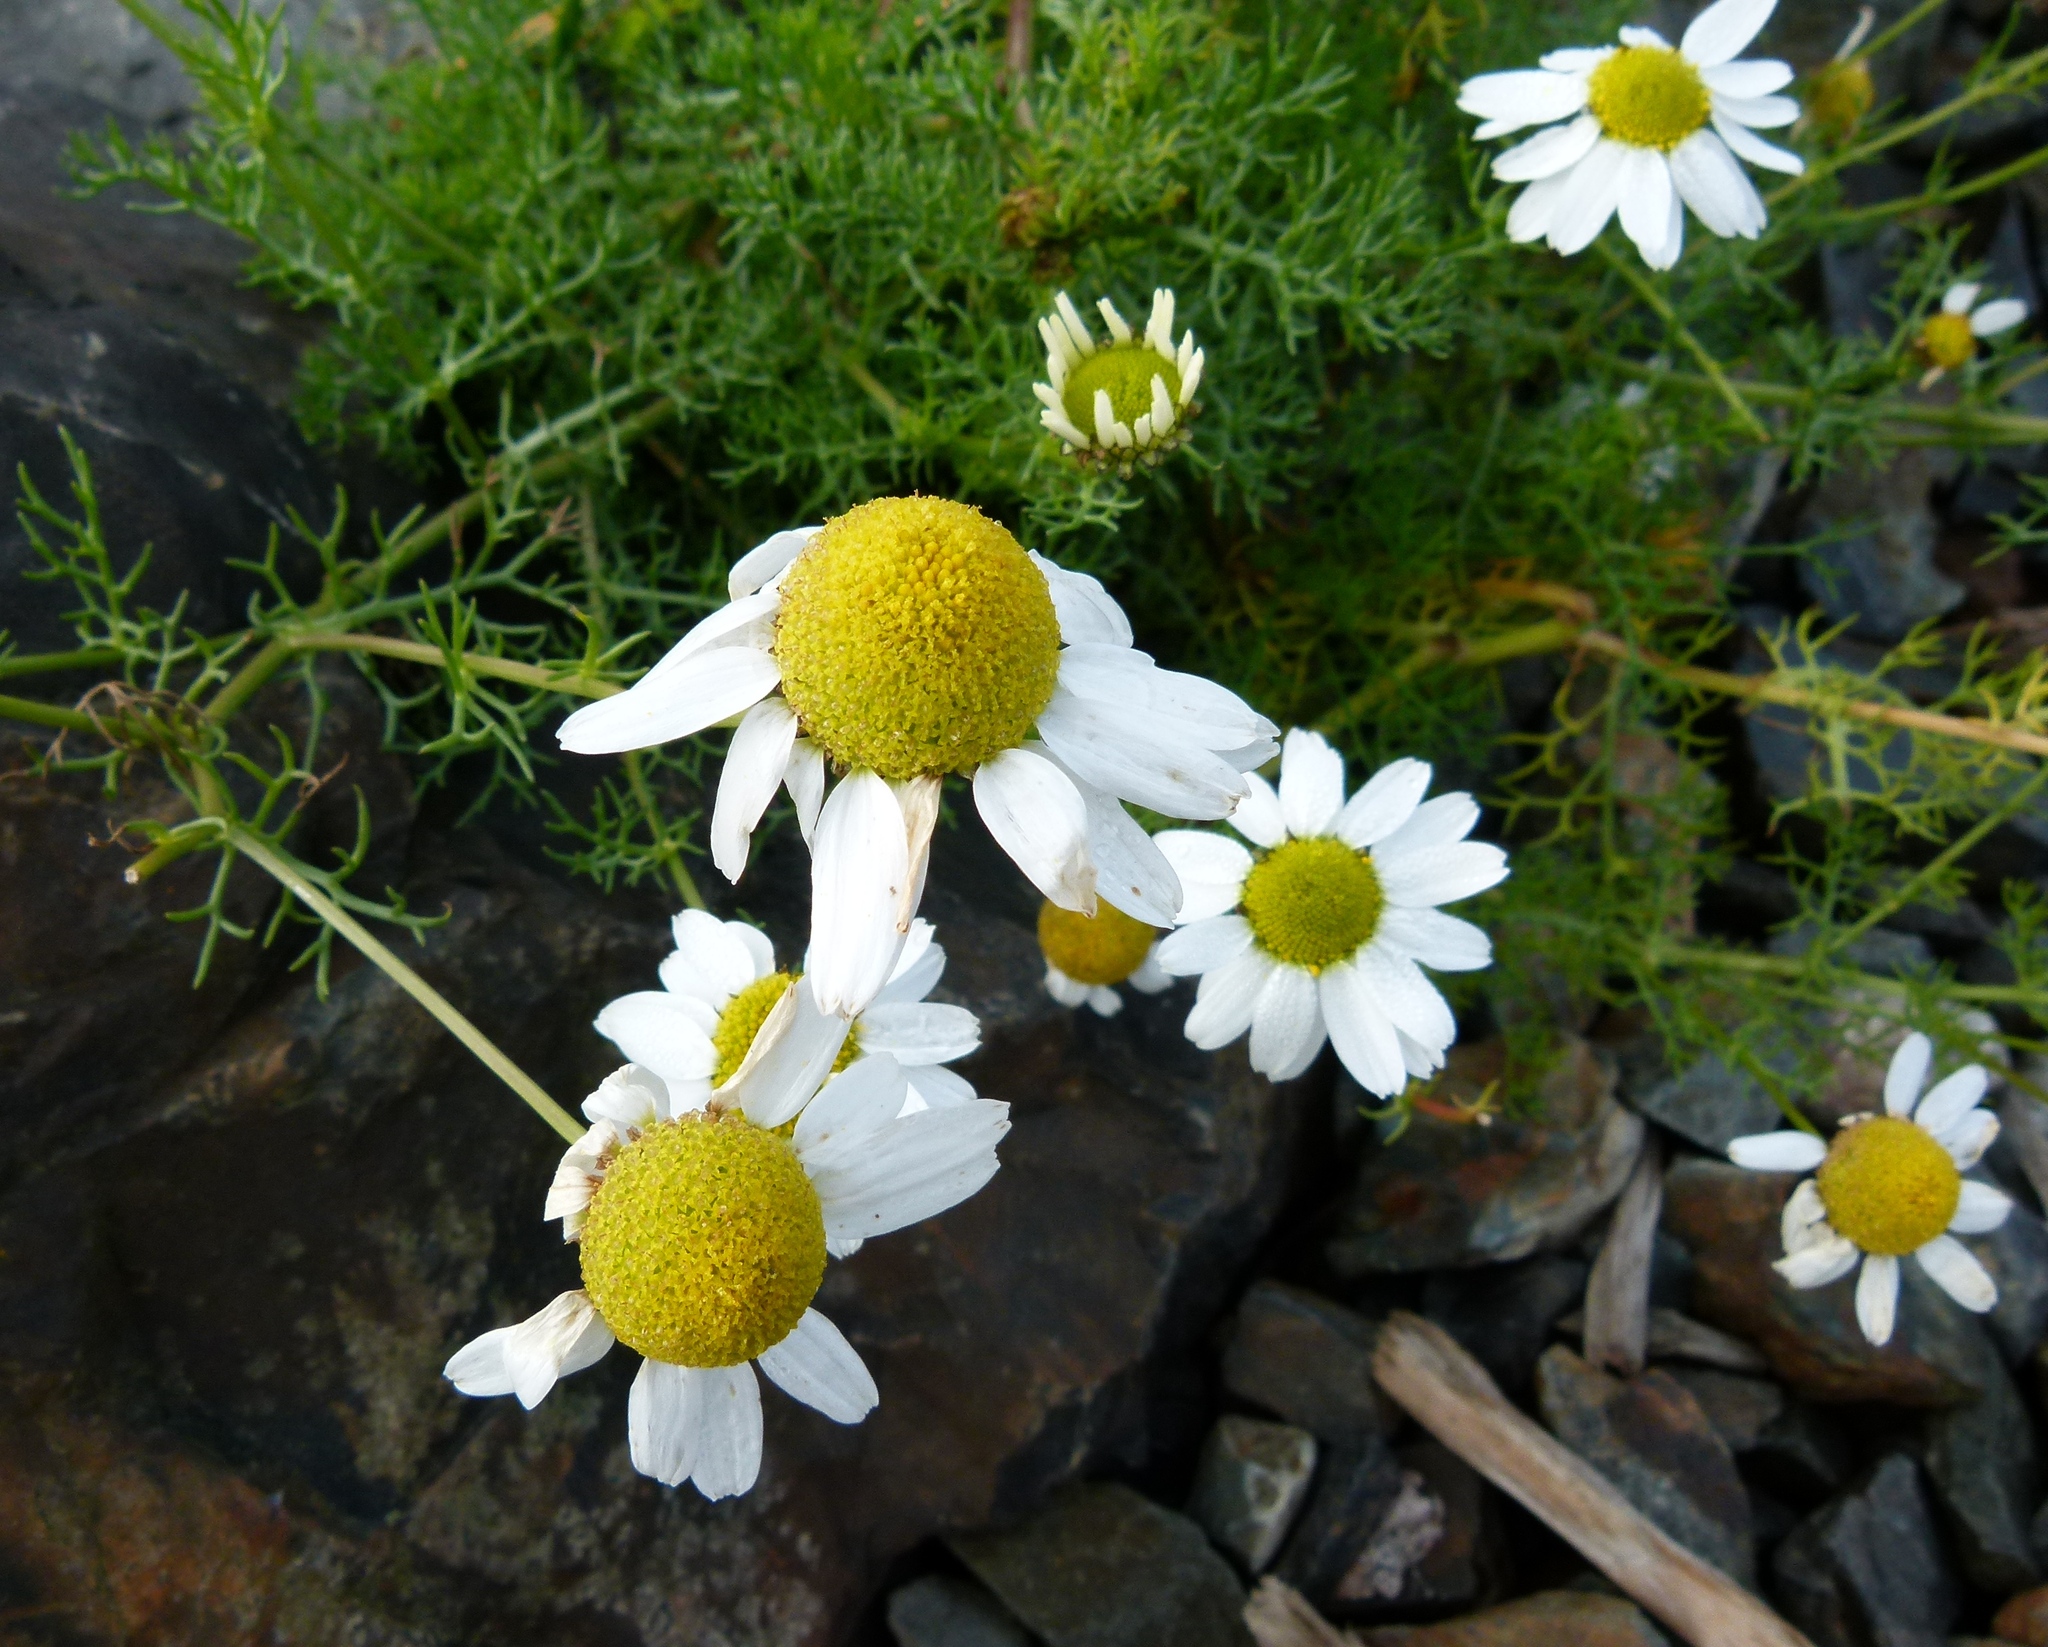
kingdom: Plantae
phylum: Tracheophyta
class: Magnoliopsida
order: Asterales
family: Asteraceae
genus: Tripleurospermum
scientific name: Tripleurospermum maritimum
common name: Sea mayweed
